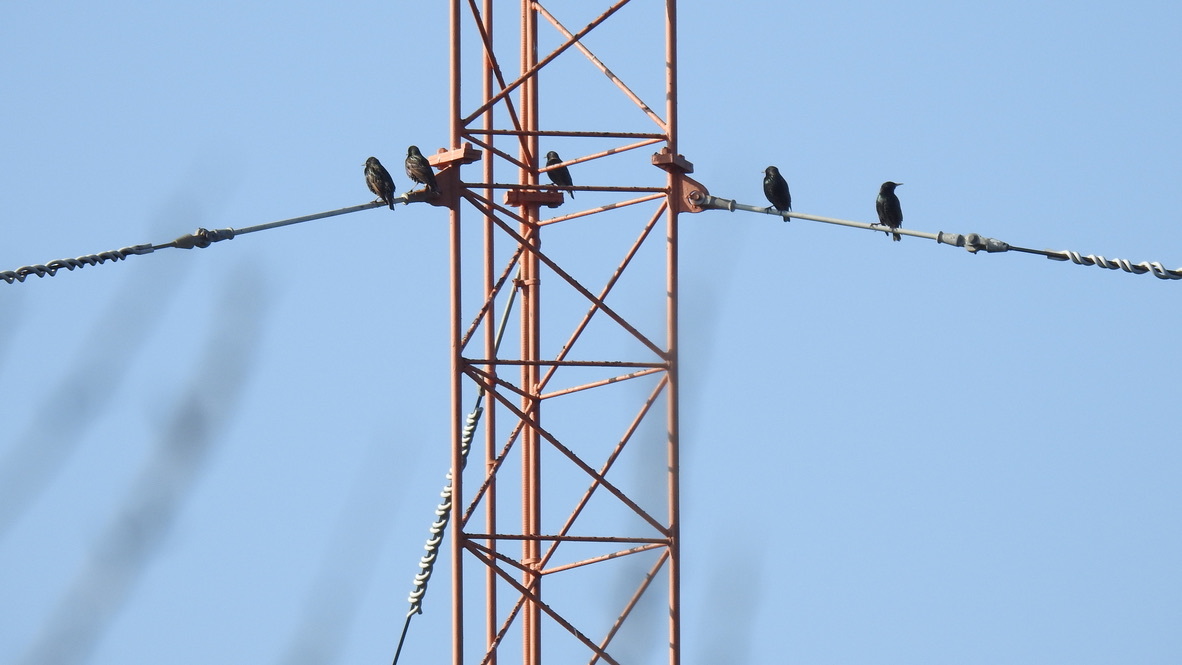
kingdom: Animalia
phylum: Chordata
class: Aves
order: Passeriformes
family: Sturnidae
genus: Sturnus
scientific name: Sturnus vulgaris
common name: Common starling
